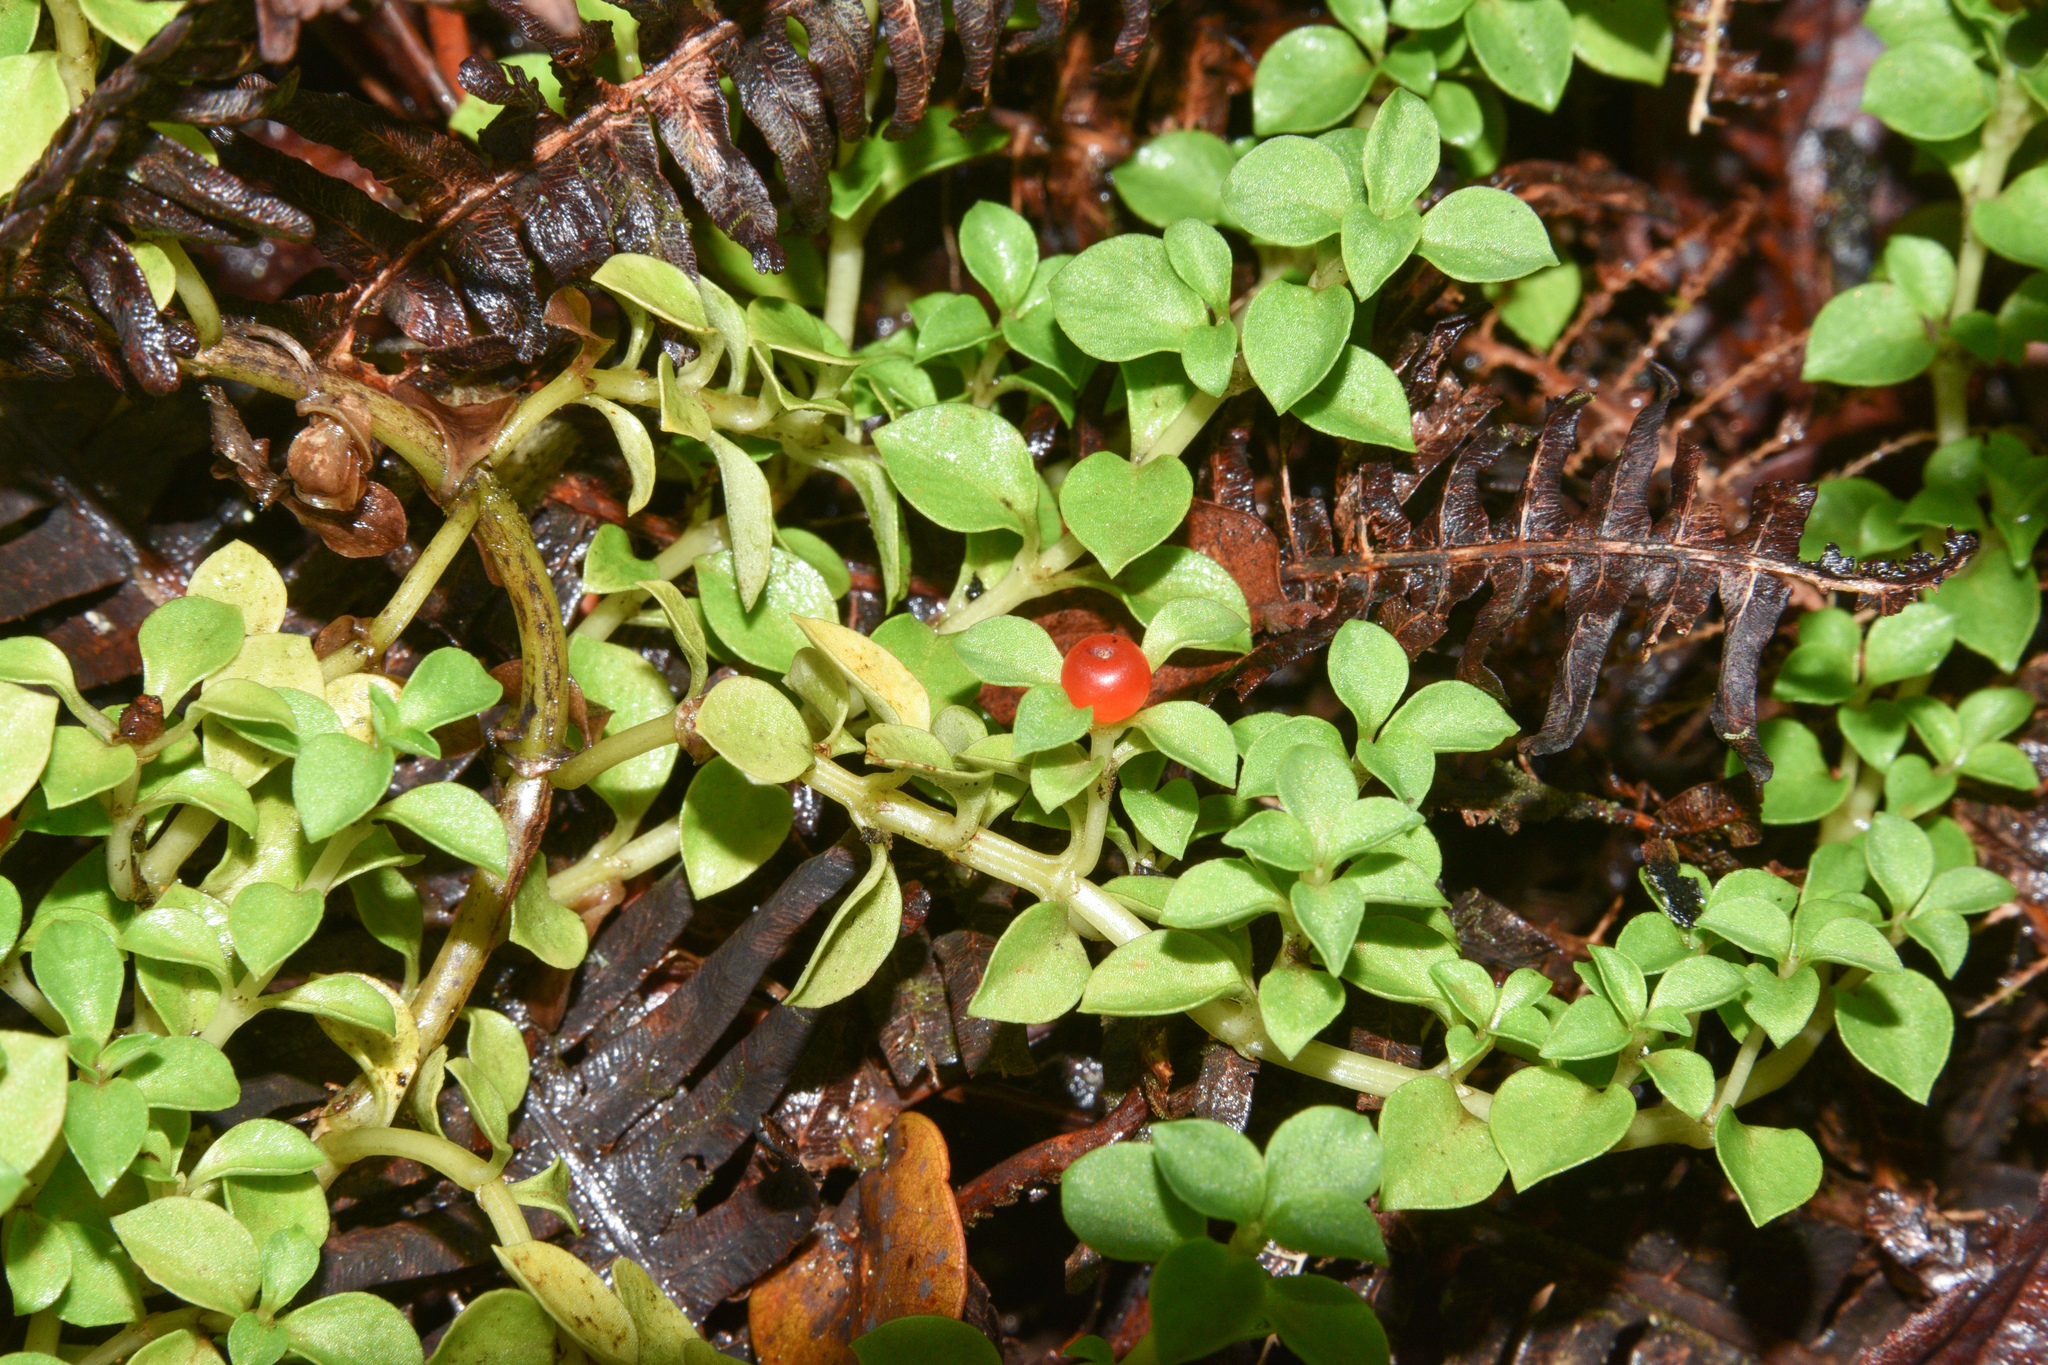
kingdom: Plantae
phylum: Tracheophyta
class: Magnoliopsida
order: Gentianales
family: Rubiaceae
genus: Nertera
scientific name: Nertera granadensis
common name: Beadplant
